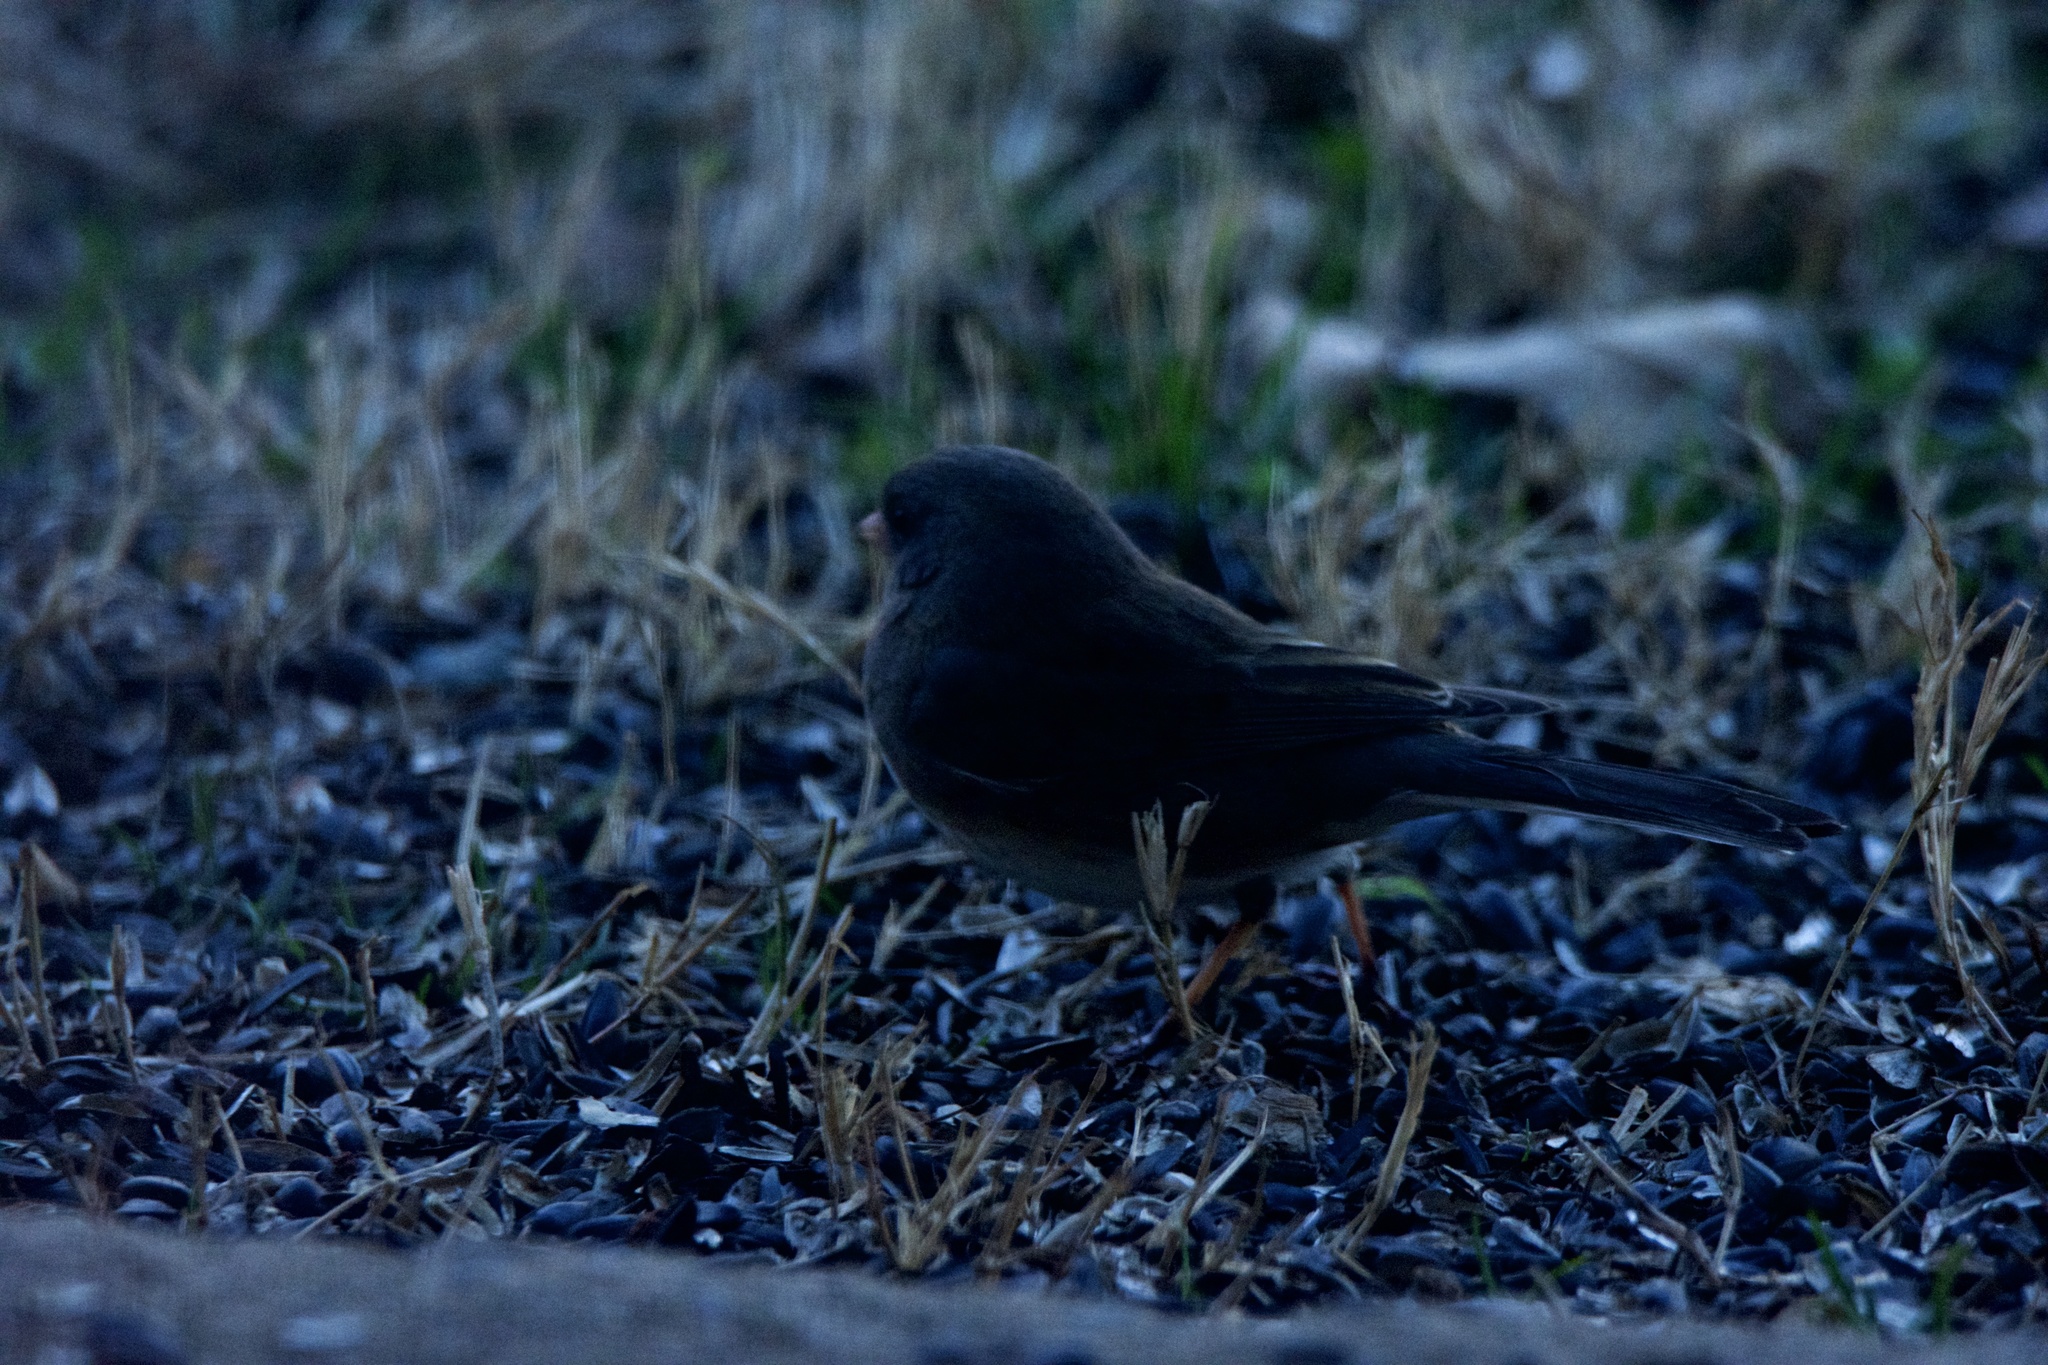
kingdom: Animalia
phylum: Chordata
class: Aves
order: Passeriformes
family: Passerellidae
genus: Junco
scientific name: Junco hyemalis
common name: Dark-eyed junco
